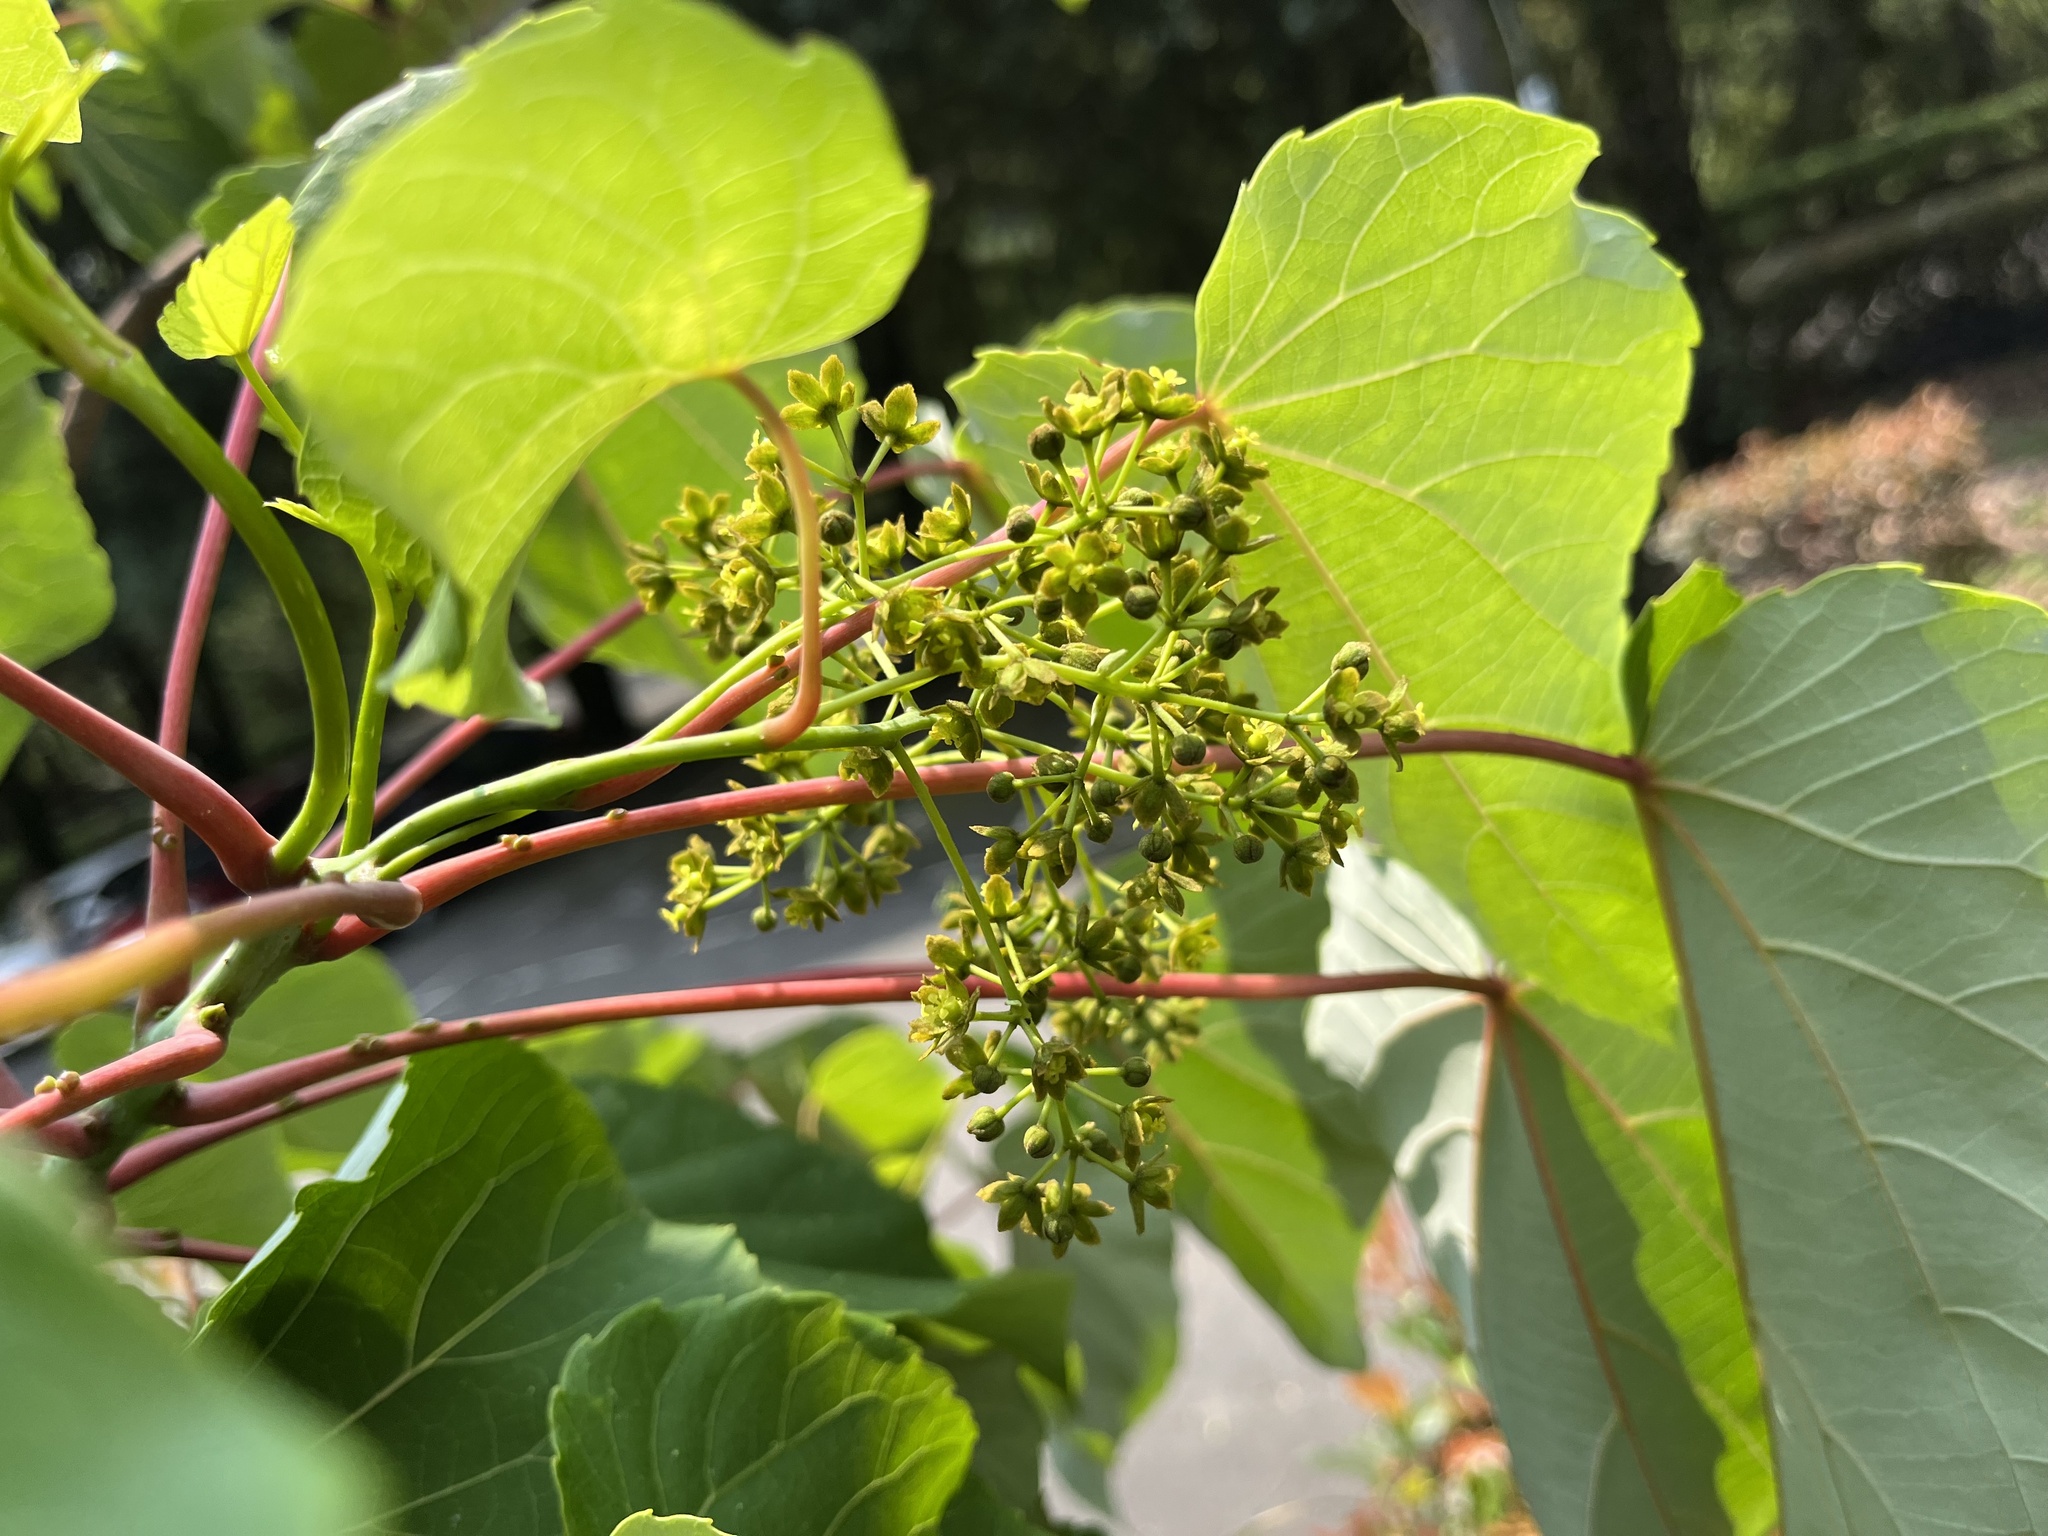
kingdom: Plantae
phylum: Tracheophyta
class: Magnoliopsida
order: Malpighiales
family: Salicaceae
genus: Idesia
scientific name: Idesia polycarpa
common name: Idesia tree
